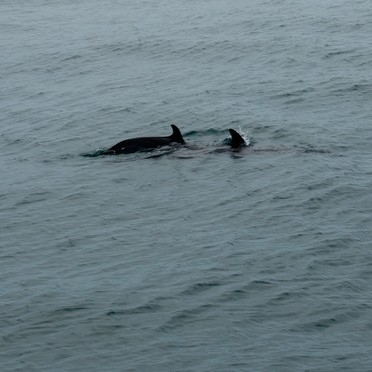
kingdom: Animalia
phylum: Chordata
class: Mammalia
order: Cetacea
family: Delphinidae
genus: Stenella
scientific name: Stenella attenuata
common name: Pantropical spotted dolphin
